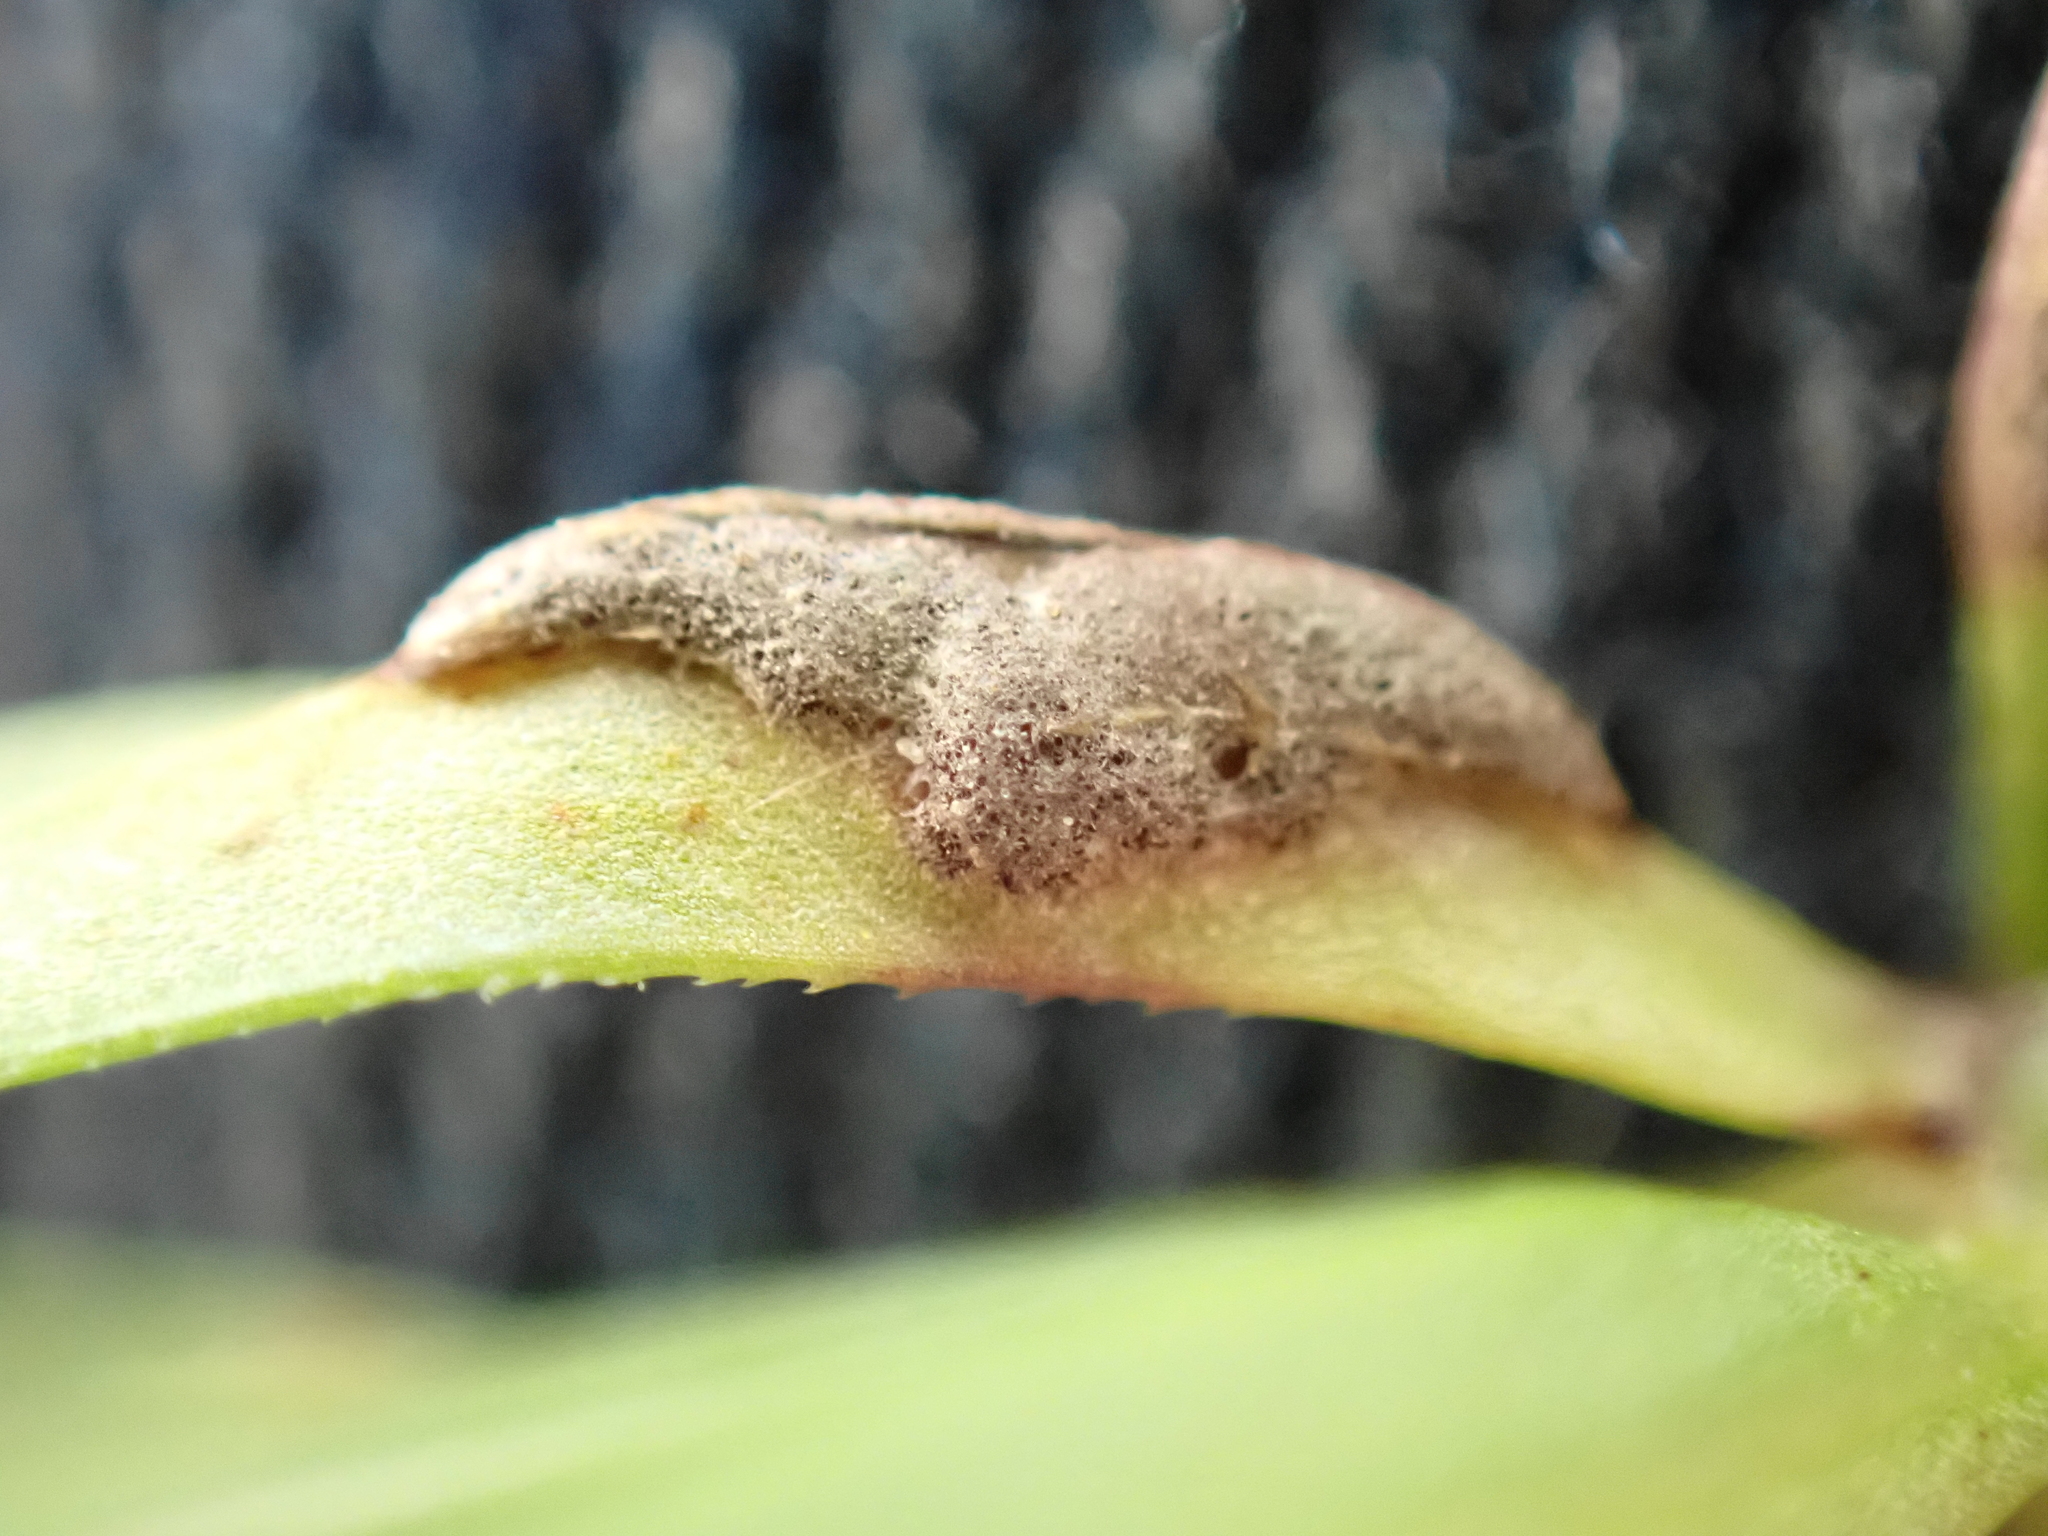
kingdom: Fungi
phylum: Basidiomycota
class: Pucciniomycetes
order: Pucciniales
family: Pucciniaceae
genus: Puccinia
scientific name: Puccinia punctata
